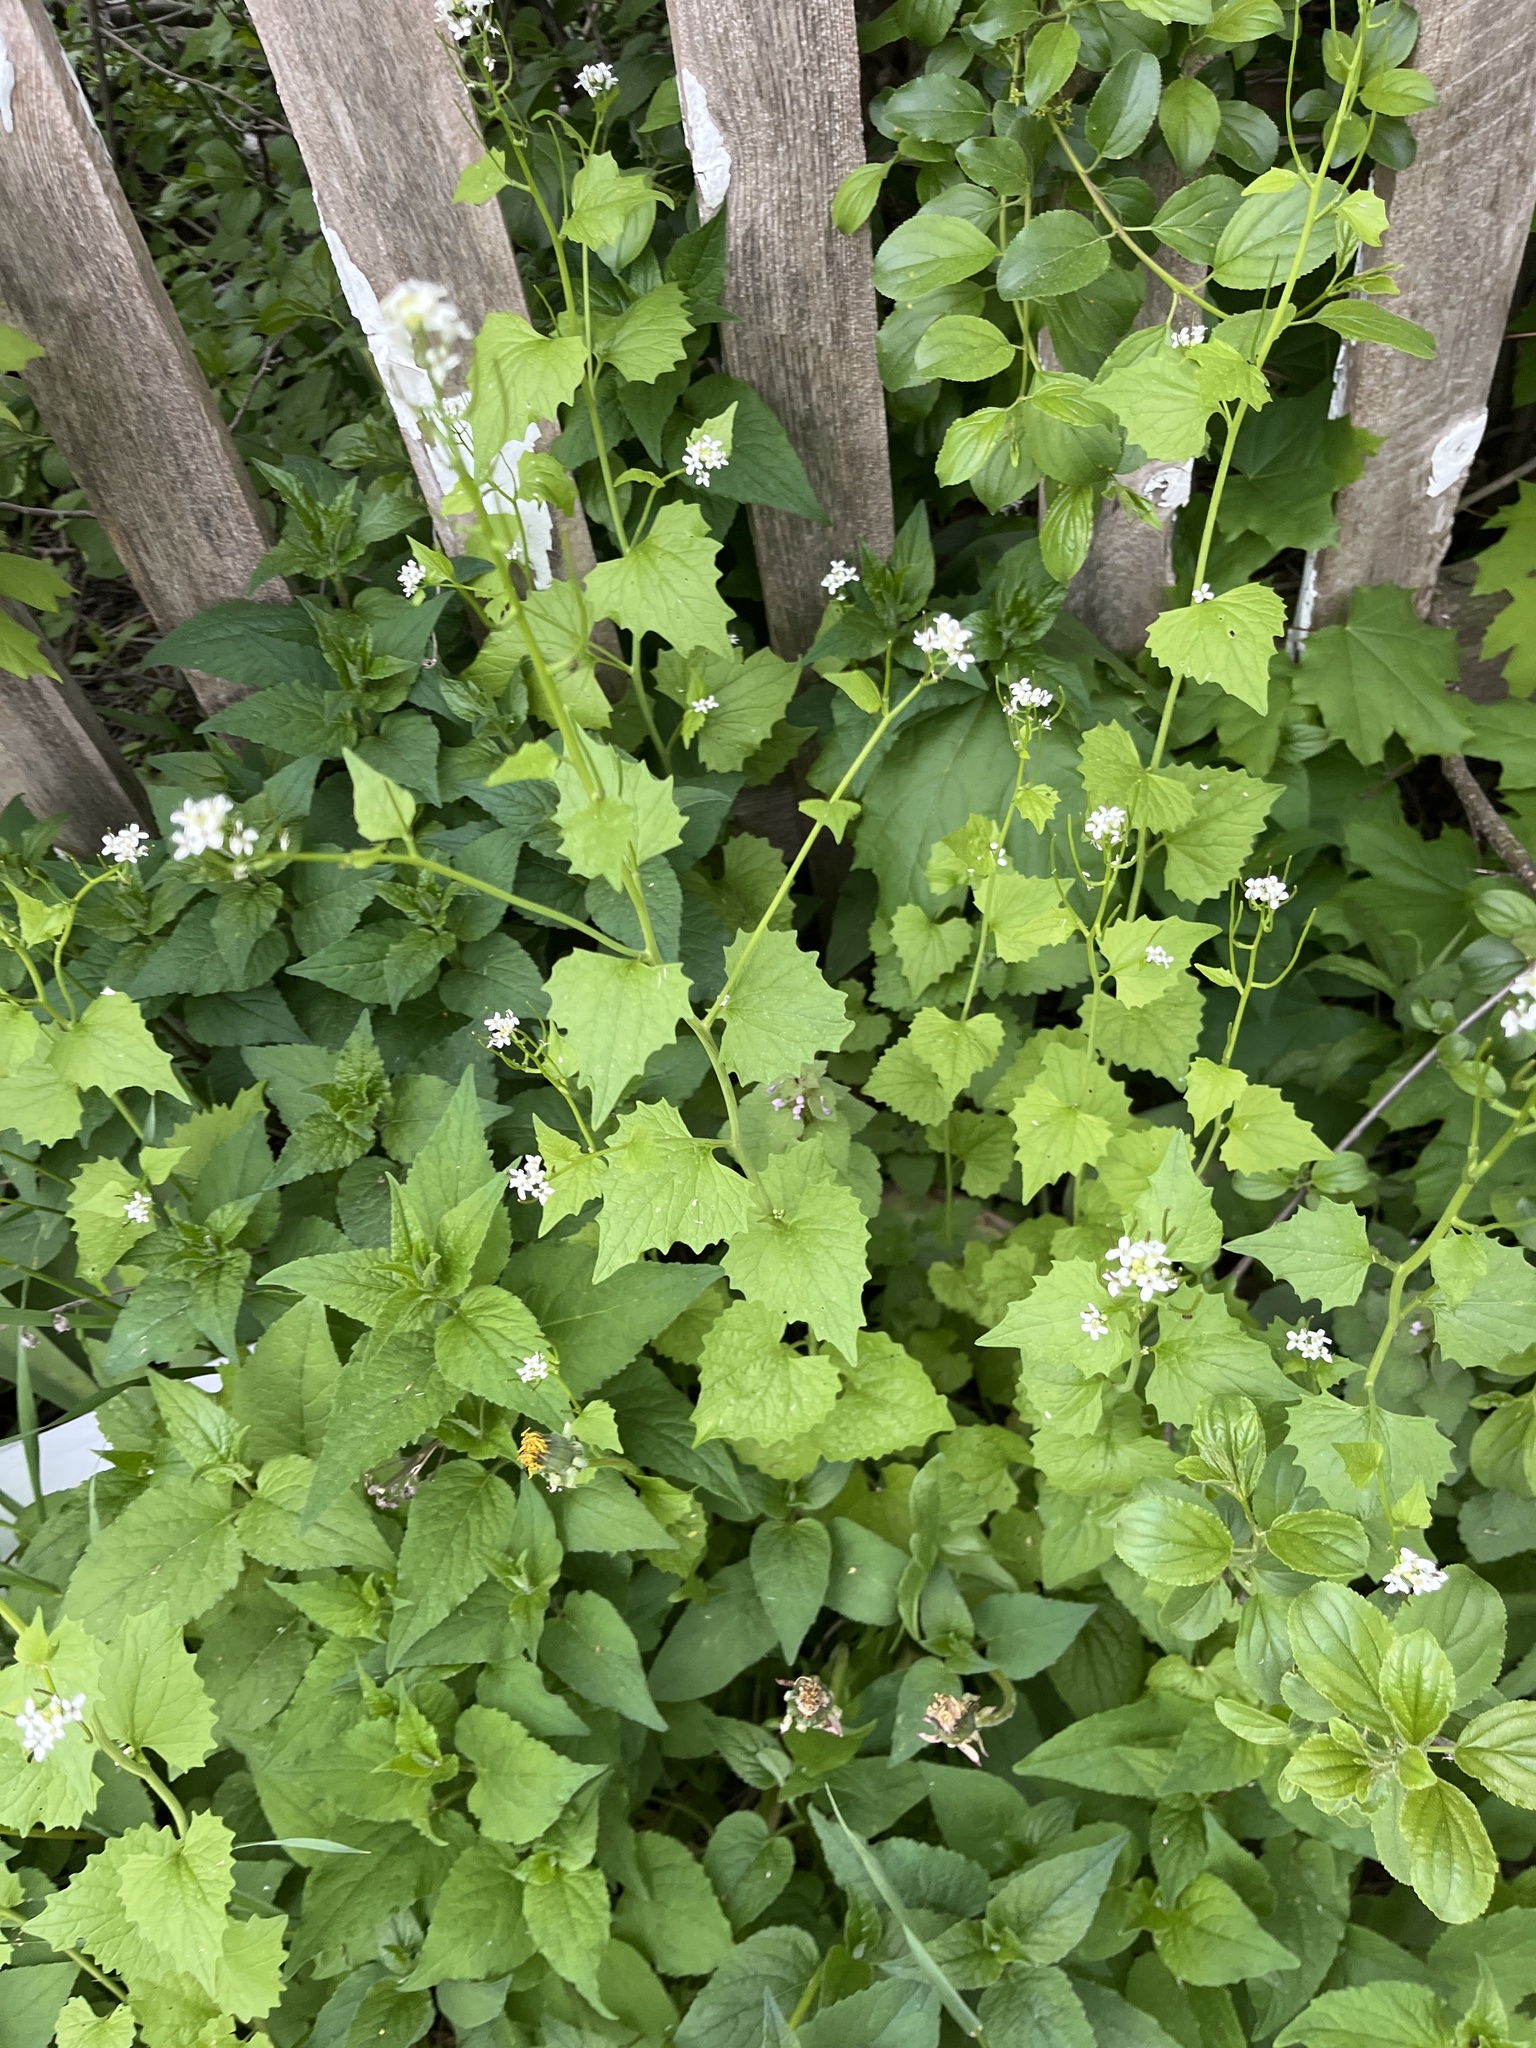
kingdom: Plantae
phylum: Tracheophyta
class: Magnoliopsida
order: Brassicales
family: Brassicaceae
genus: Alliaria
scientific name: Alliaria petiolata
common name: Garlic mustard
